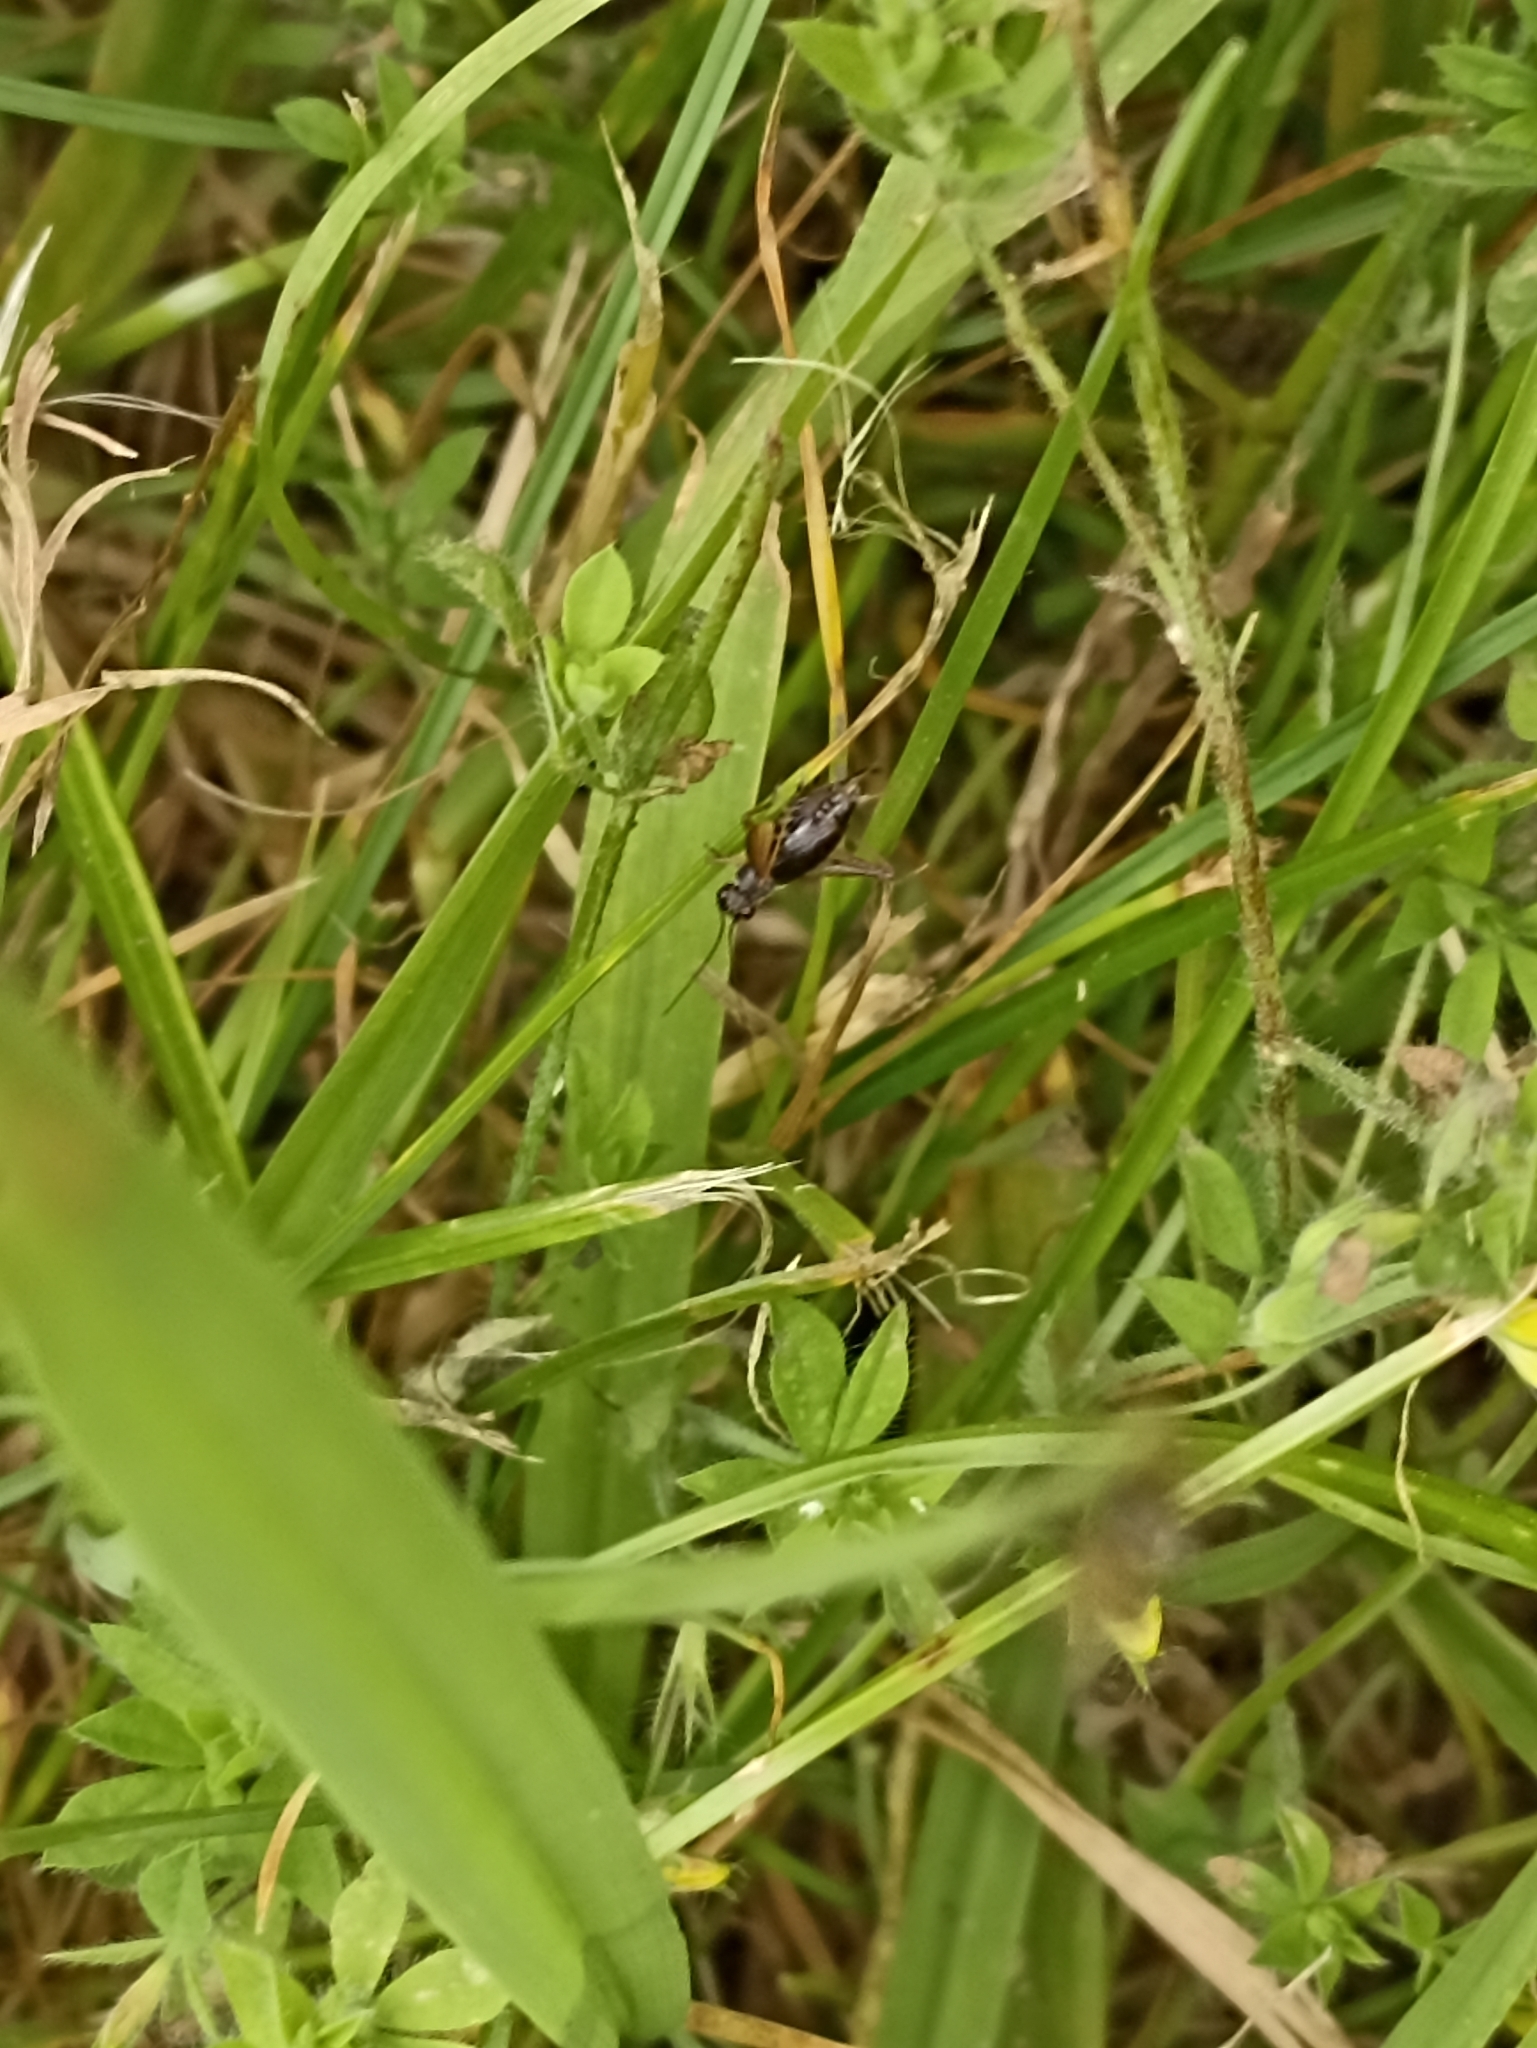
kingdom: Animalia
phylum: Arthropoda
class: Insecta
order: Orthoptera
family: Trigonidiidae
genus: Metioche
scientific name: Metioche maorica
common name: New zealand trig
